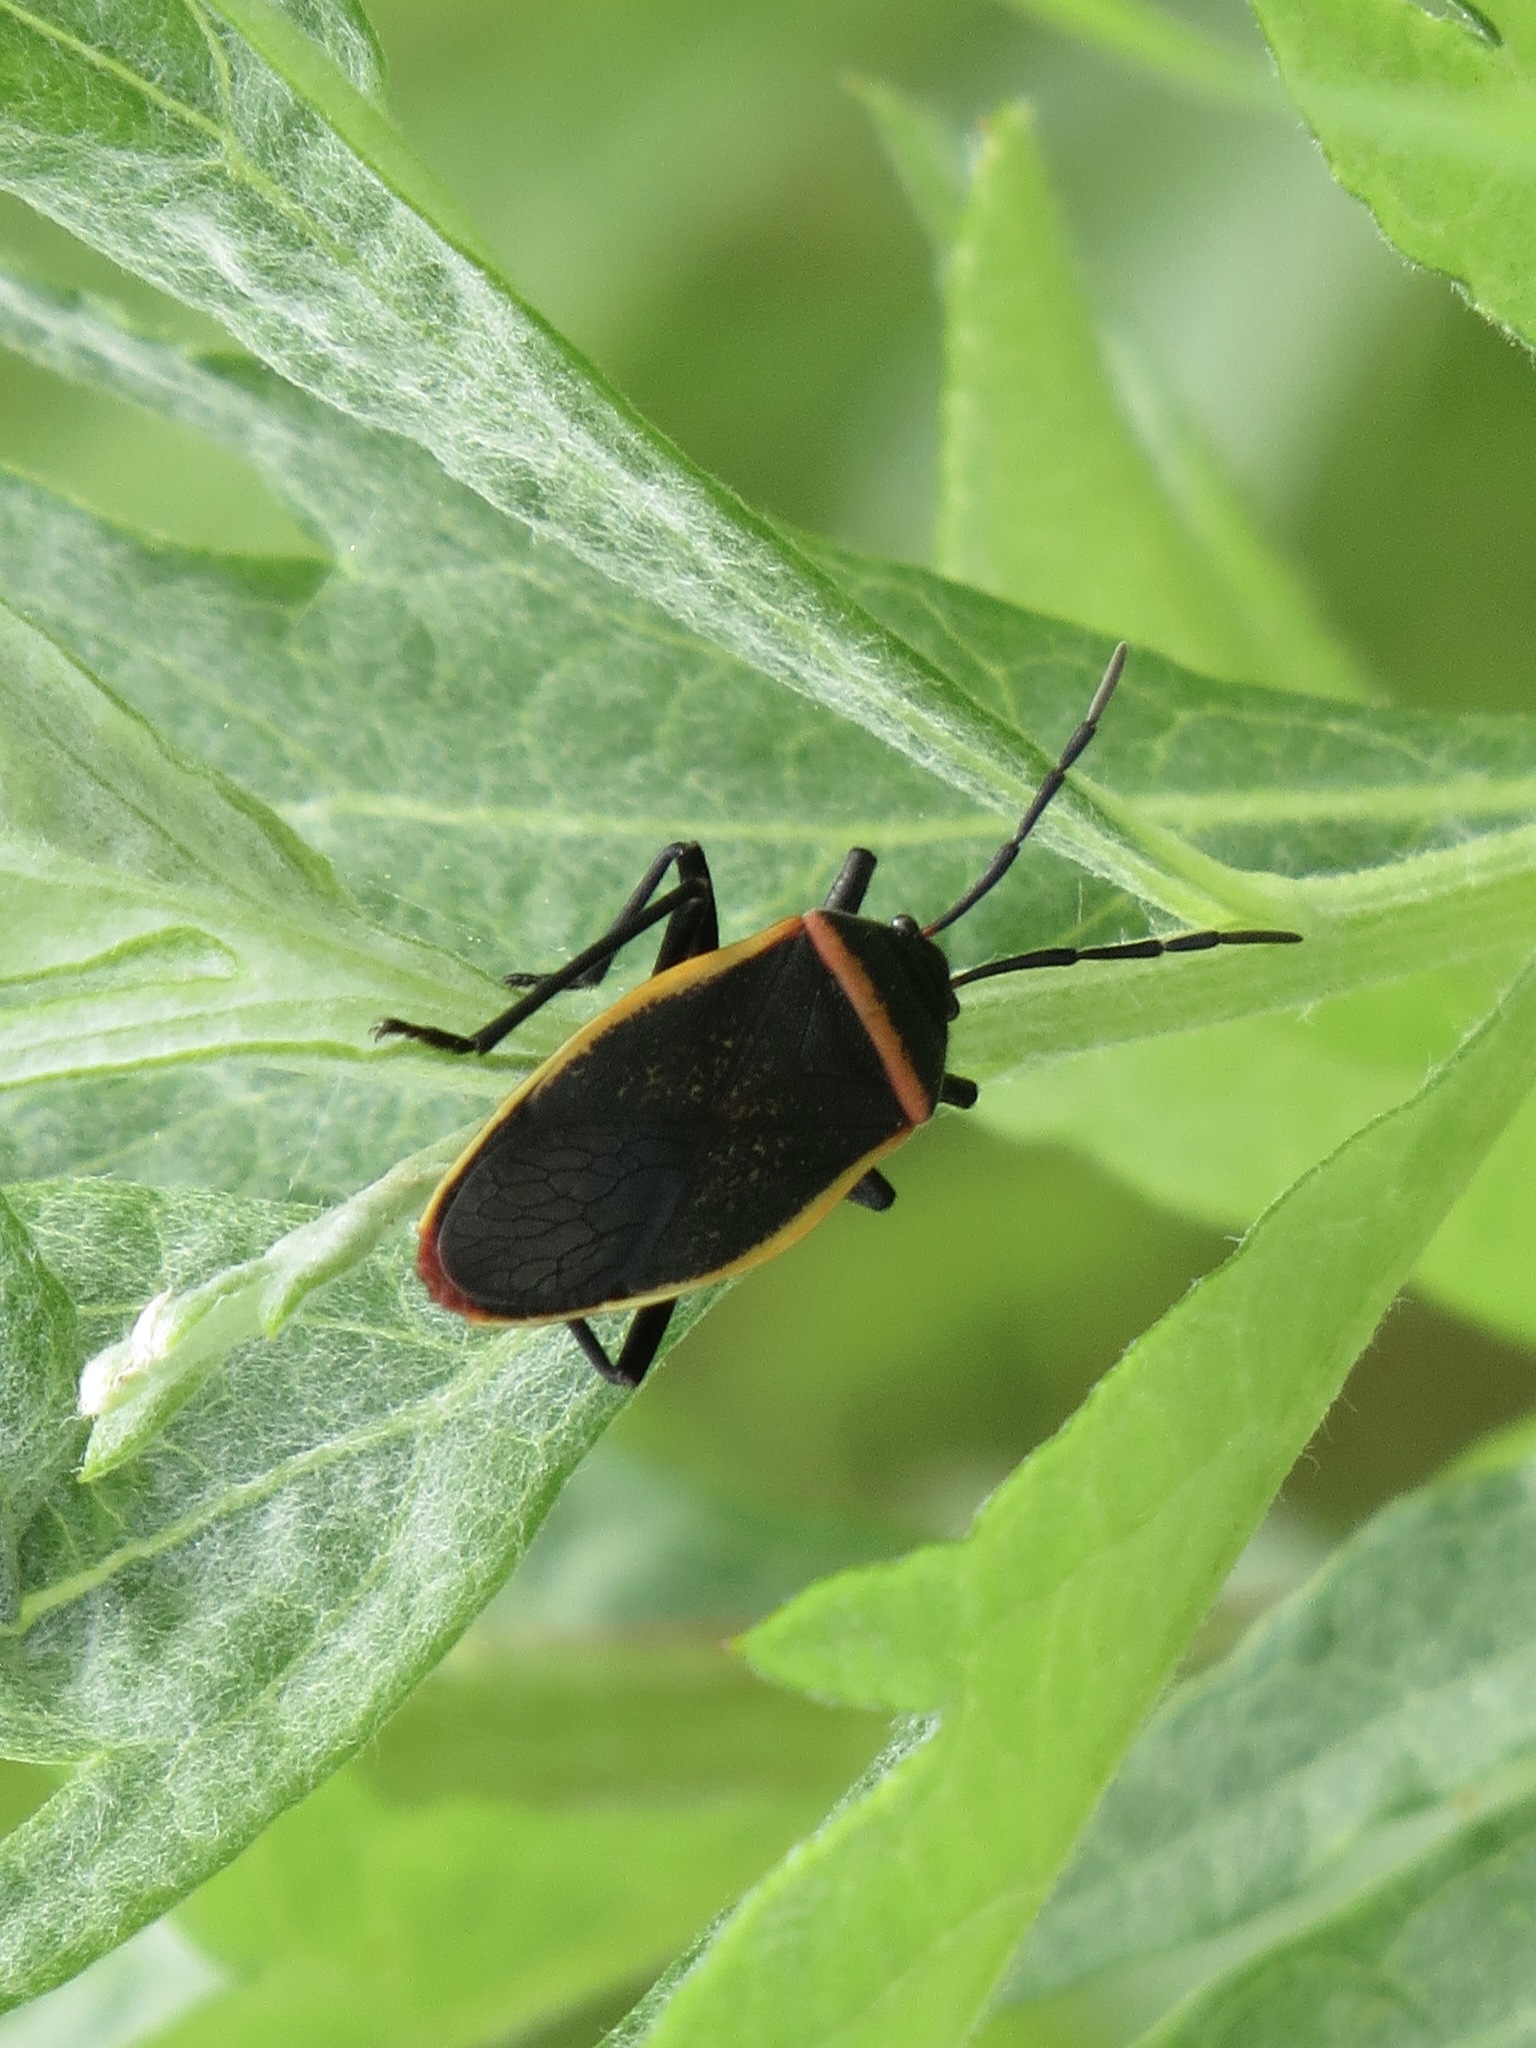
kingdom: Animalia
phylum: Arthropoda
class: Insecta
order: Hemiptera
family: Largidae
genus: Largus
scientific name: Largus californicus
